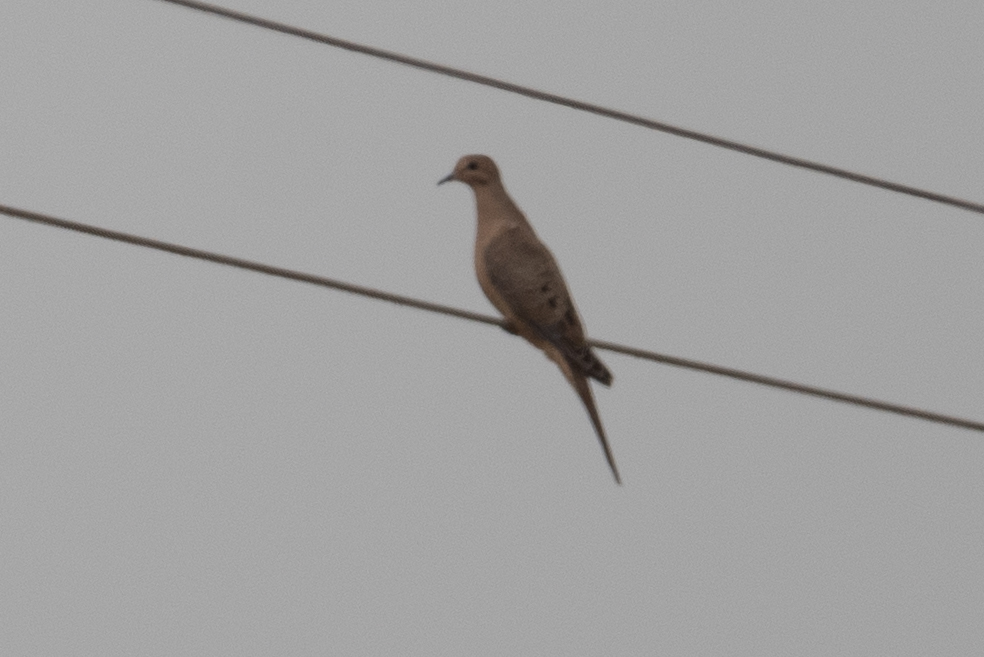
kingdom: Animalia
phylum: Chordata
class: Aves
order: Columbiformes
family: Columbidae
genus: Zenaida
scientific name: Zenaida macroura
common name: Mourning dove
